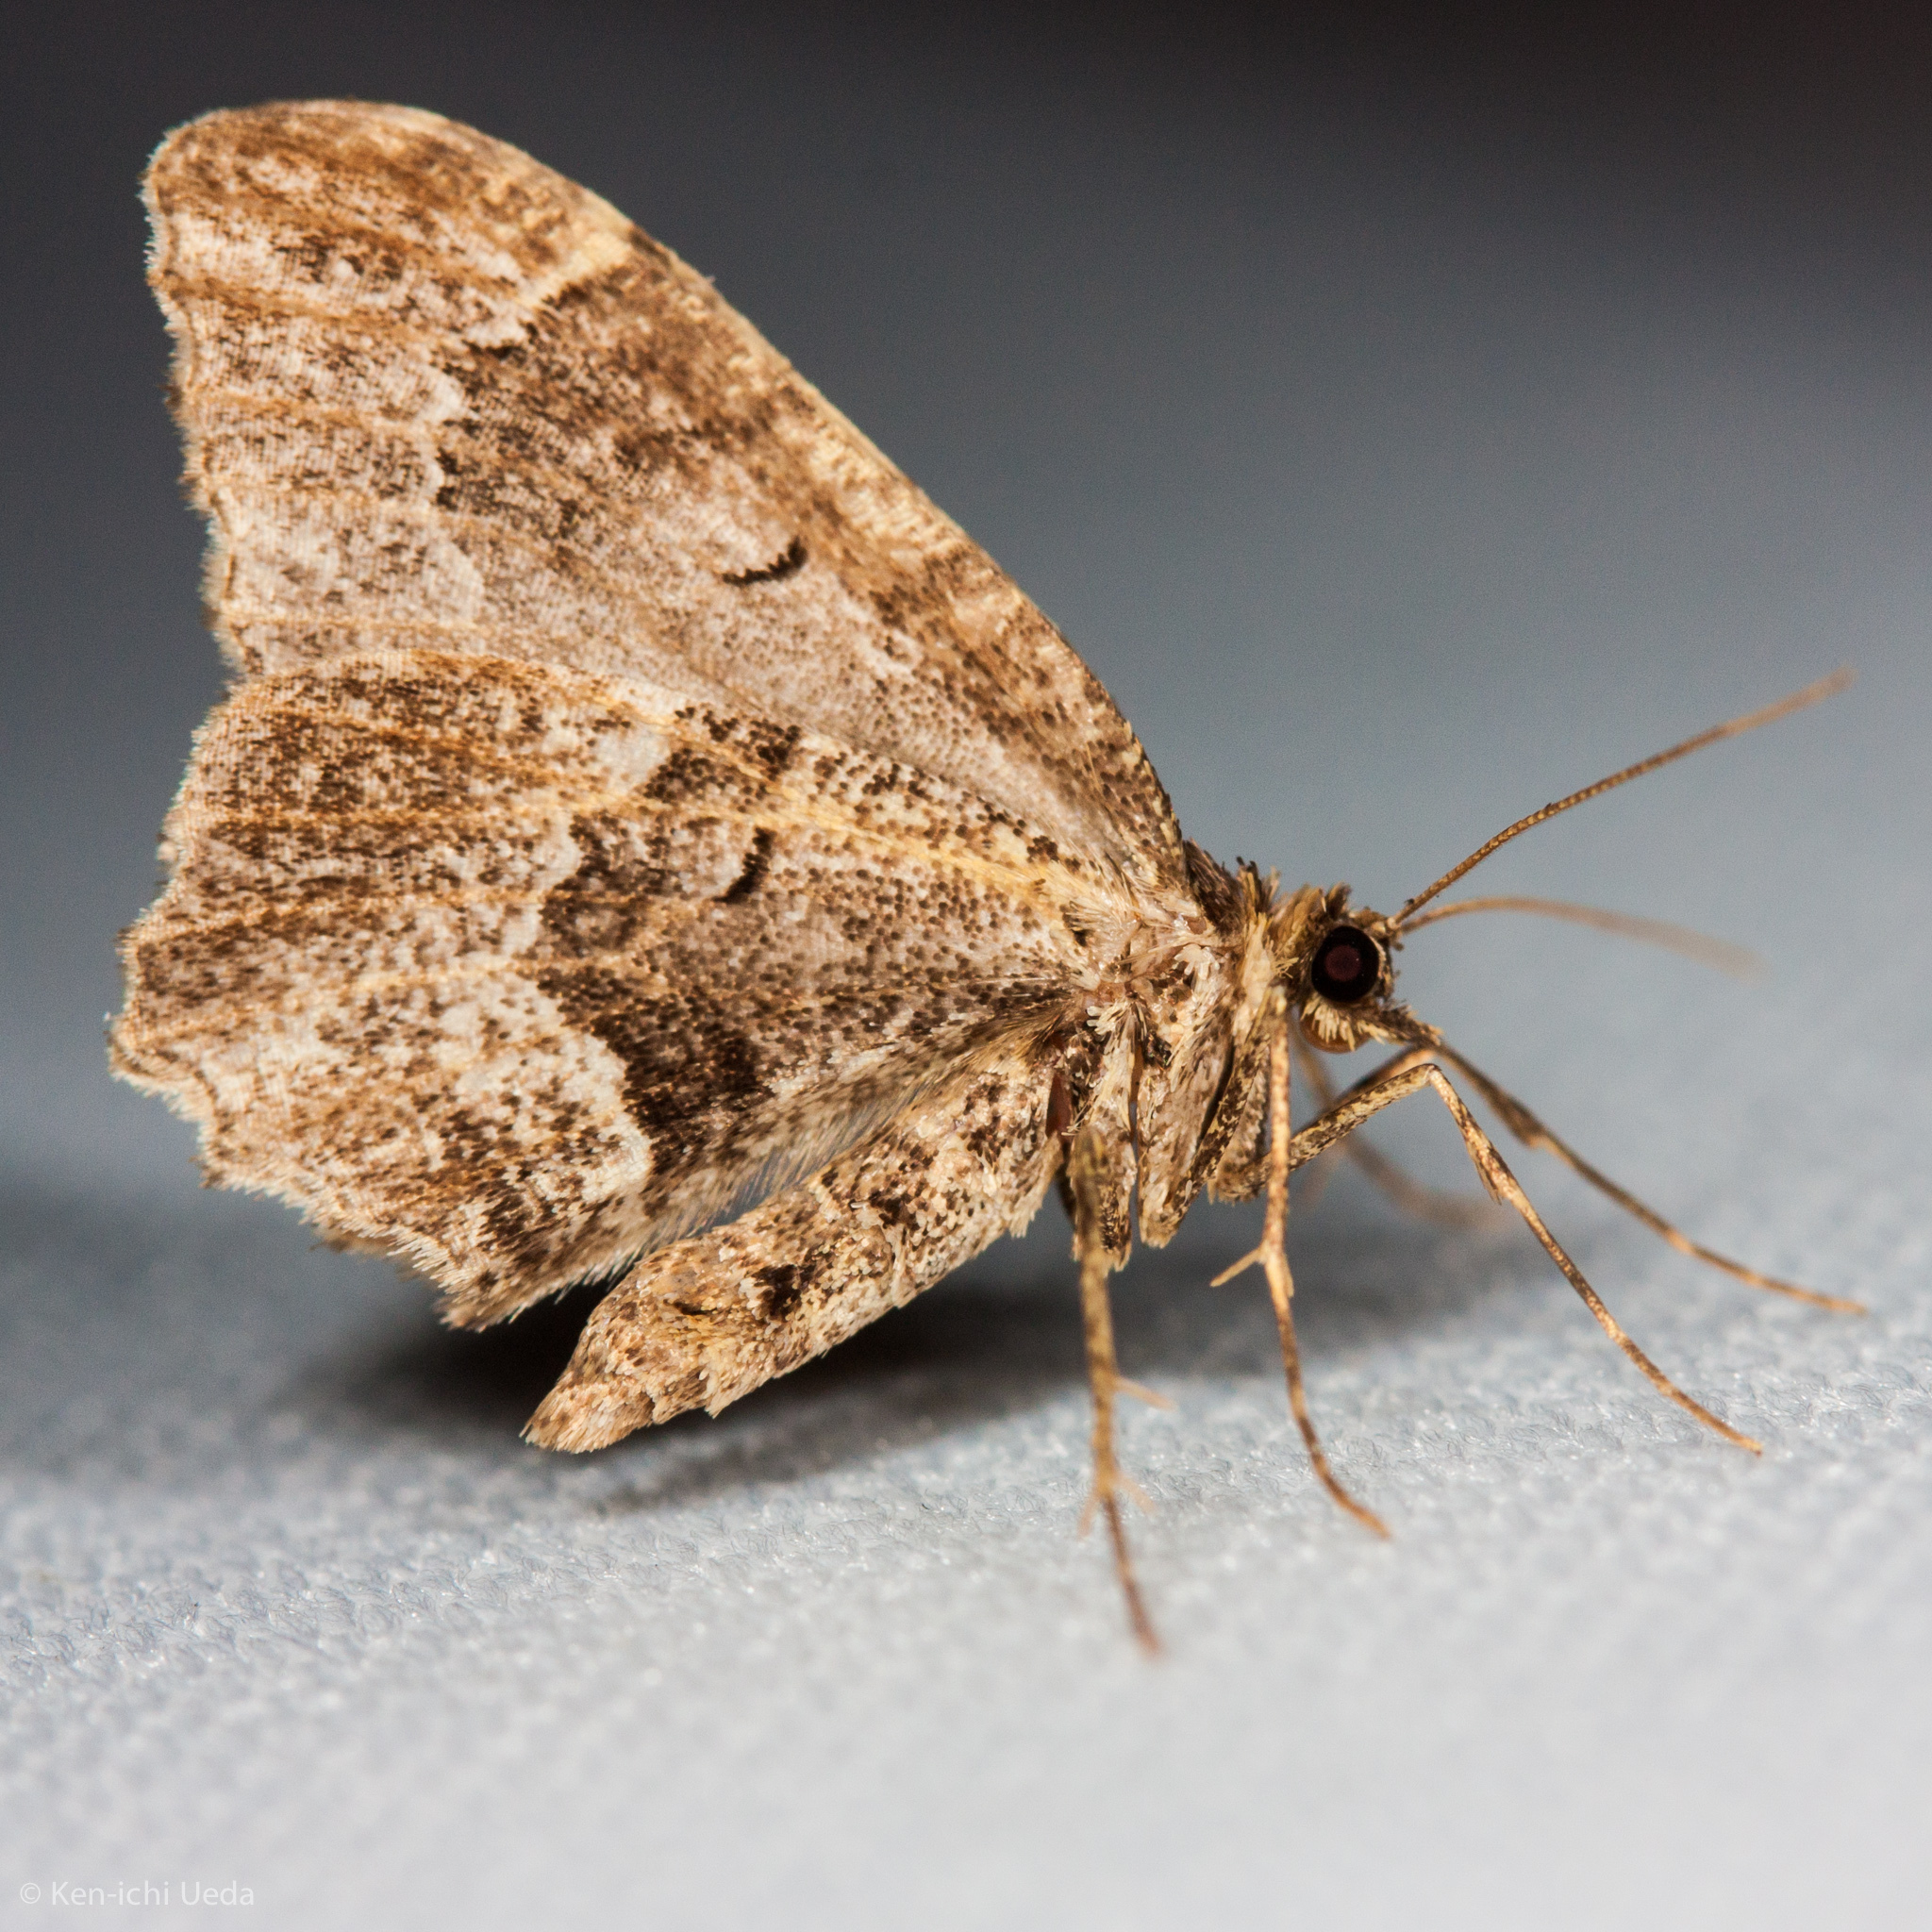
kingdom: Animalia
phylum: Arthropoda
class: Insecta
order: Lepidoptera
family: Geometridae
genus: Ceratodalia
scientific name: Ceratodalia gueneata
